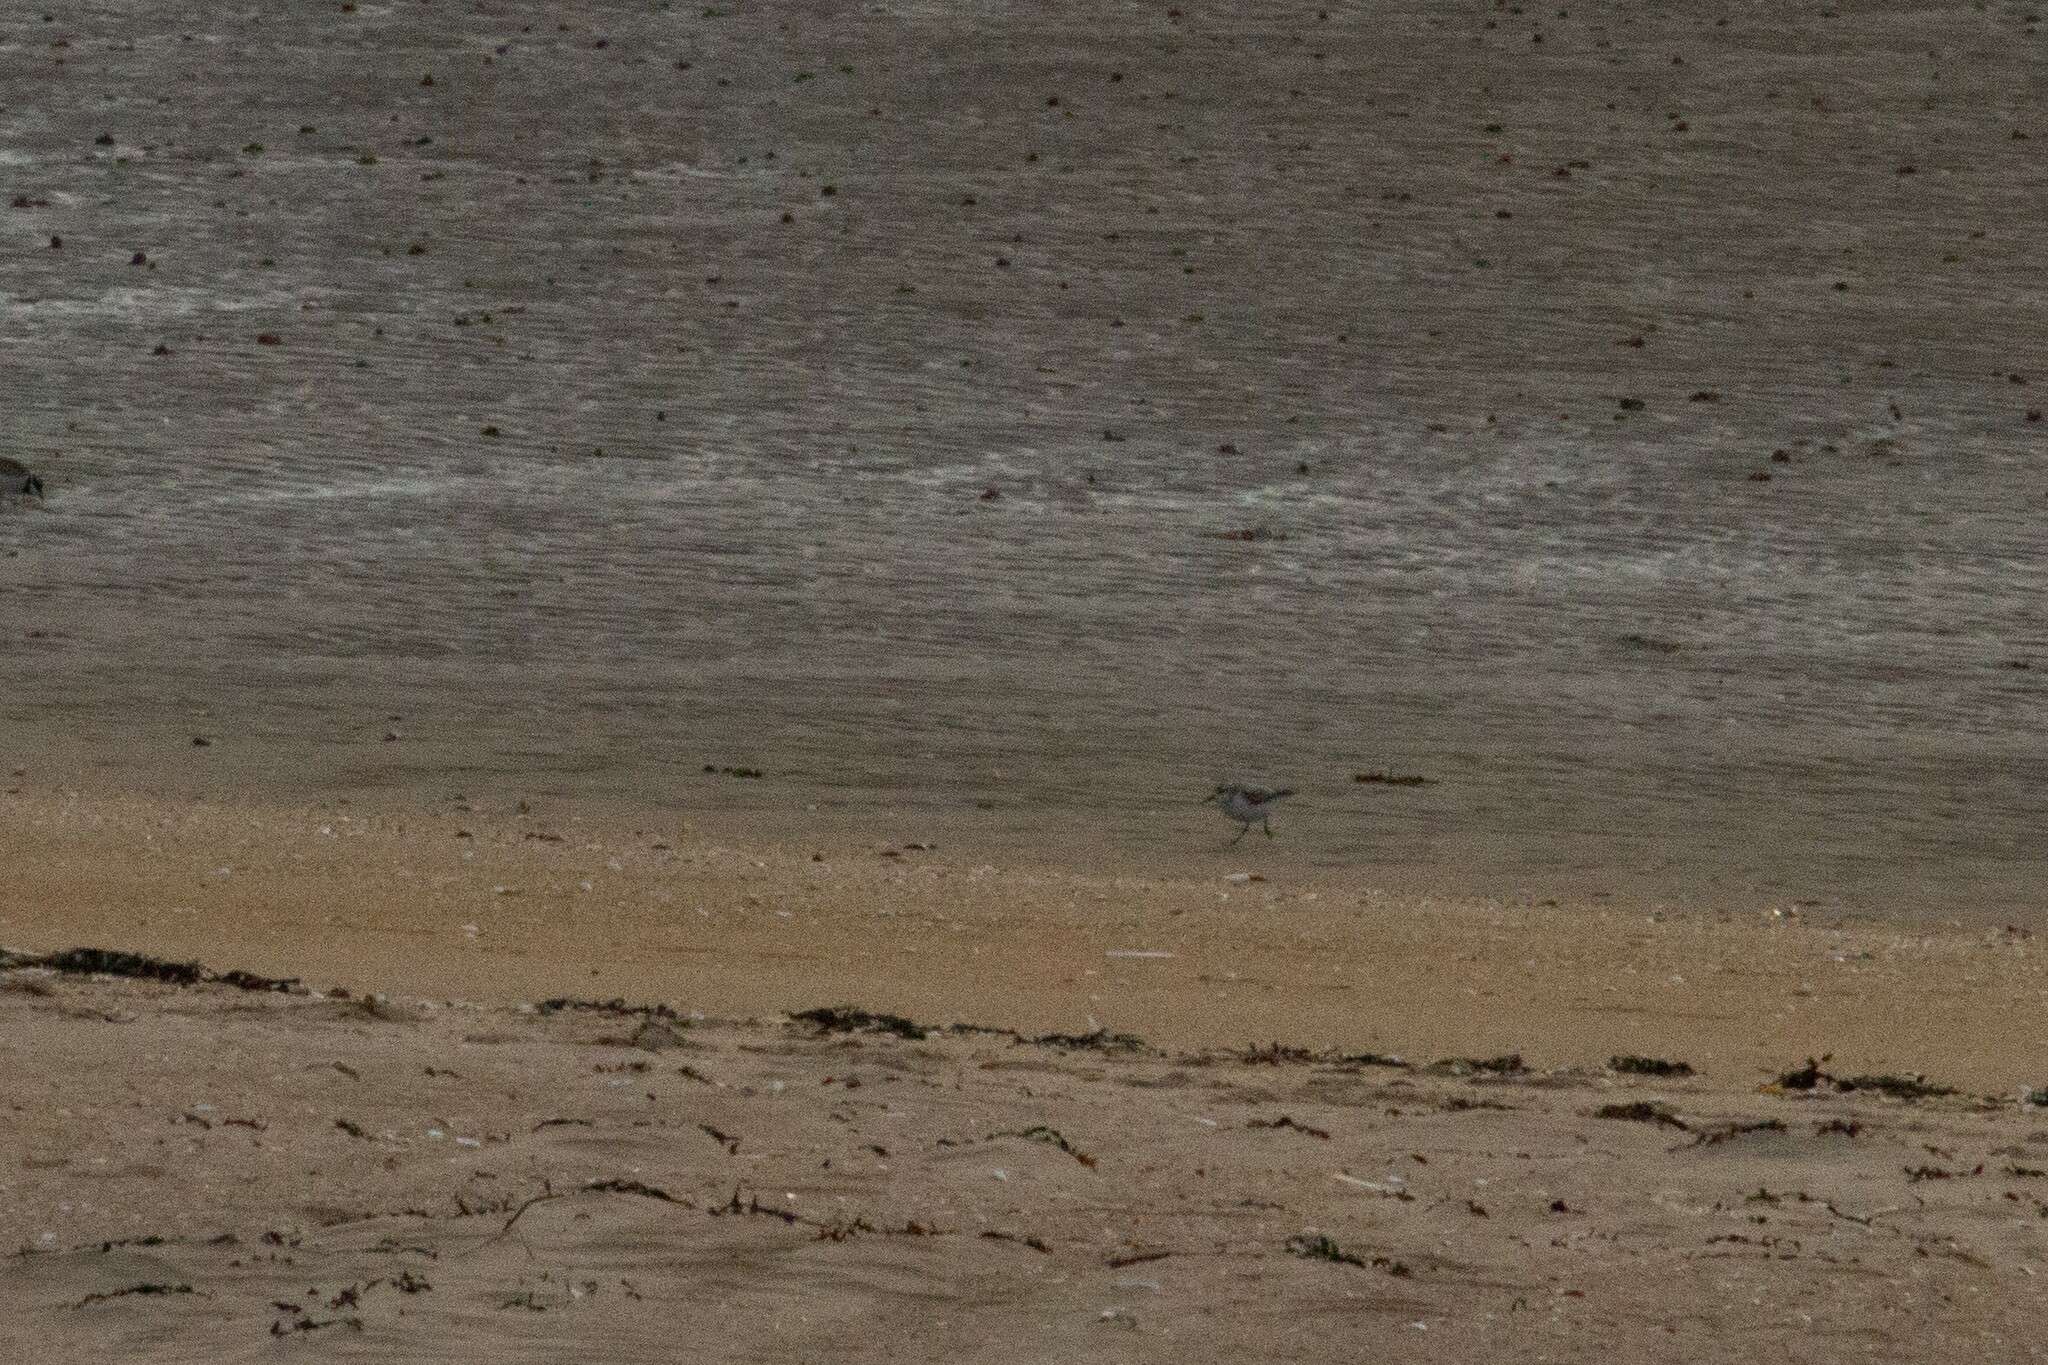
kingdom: Animalia
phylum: Chordata
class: Aves
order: Charadriiformes
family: Scolopacidae
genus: Calidris
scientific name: Calidris alba
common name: Sanderling
